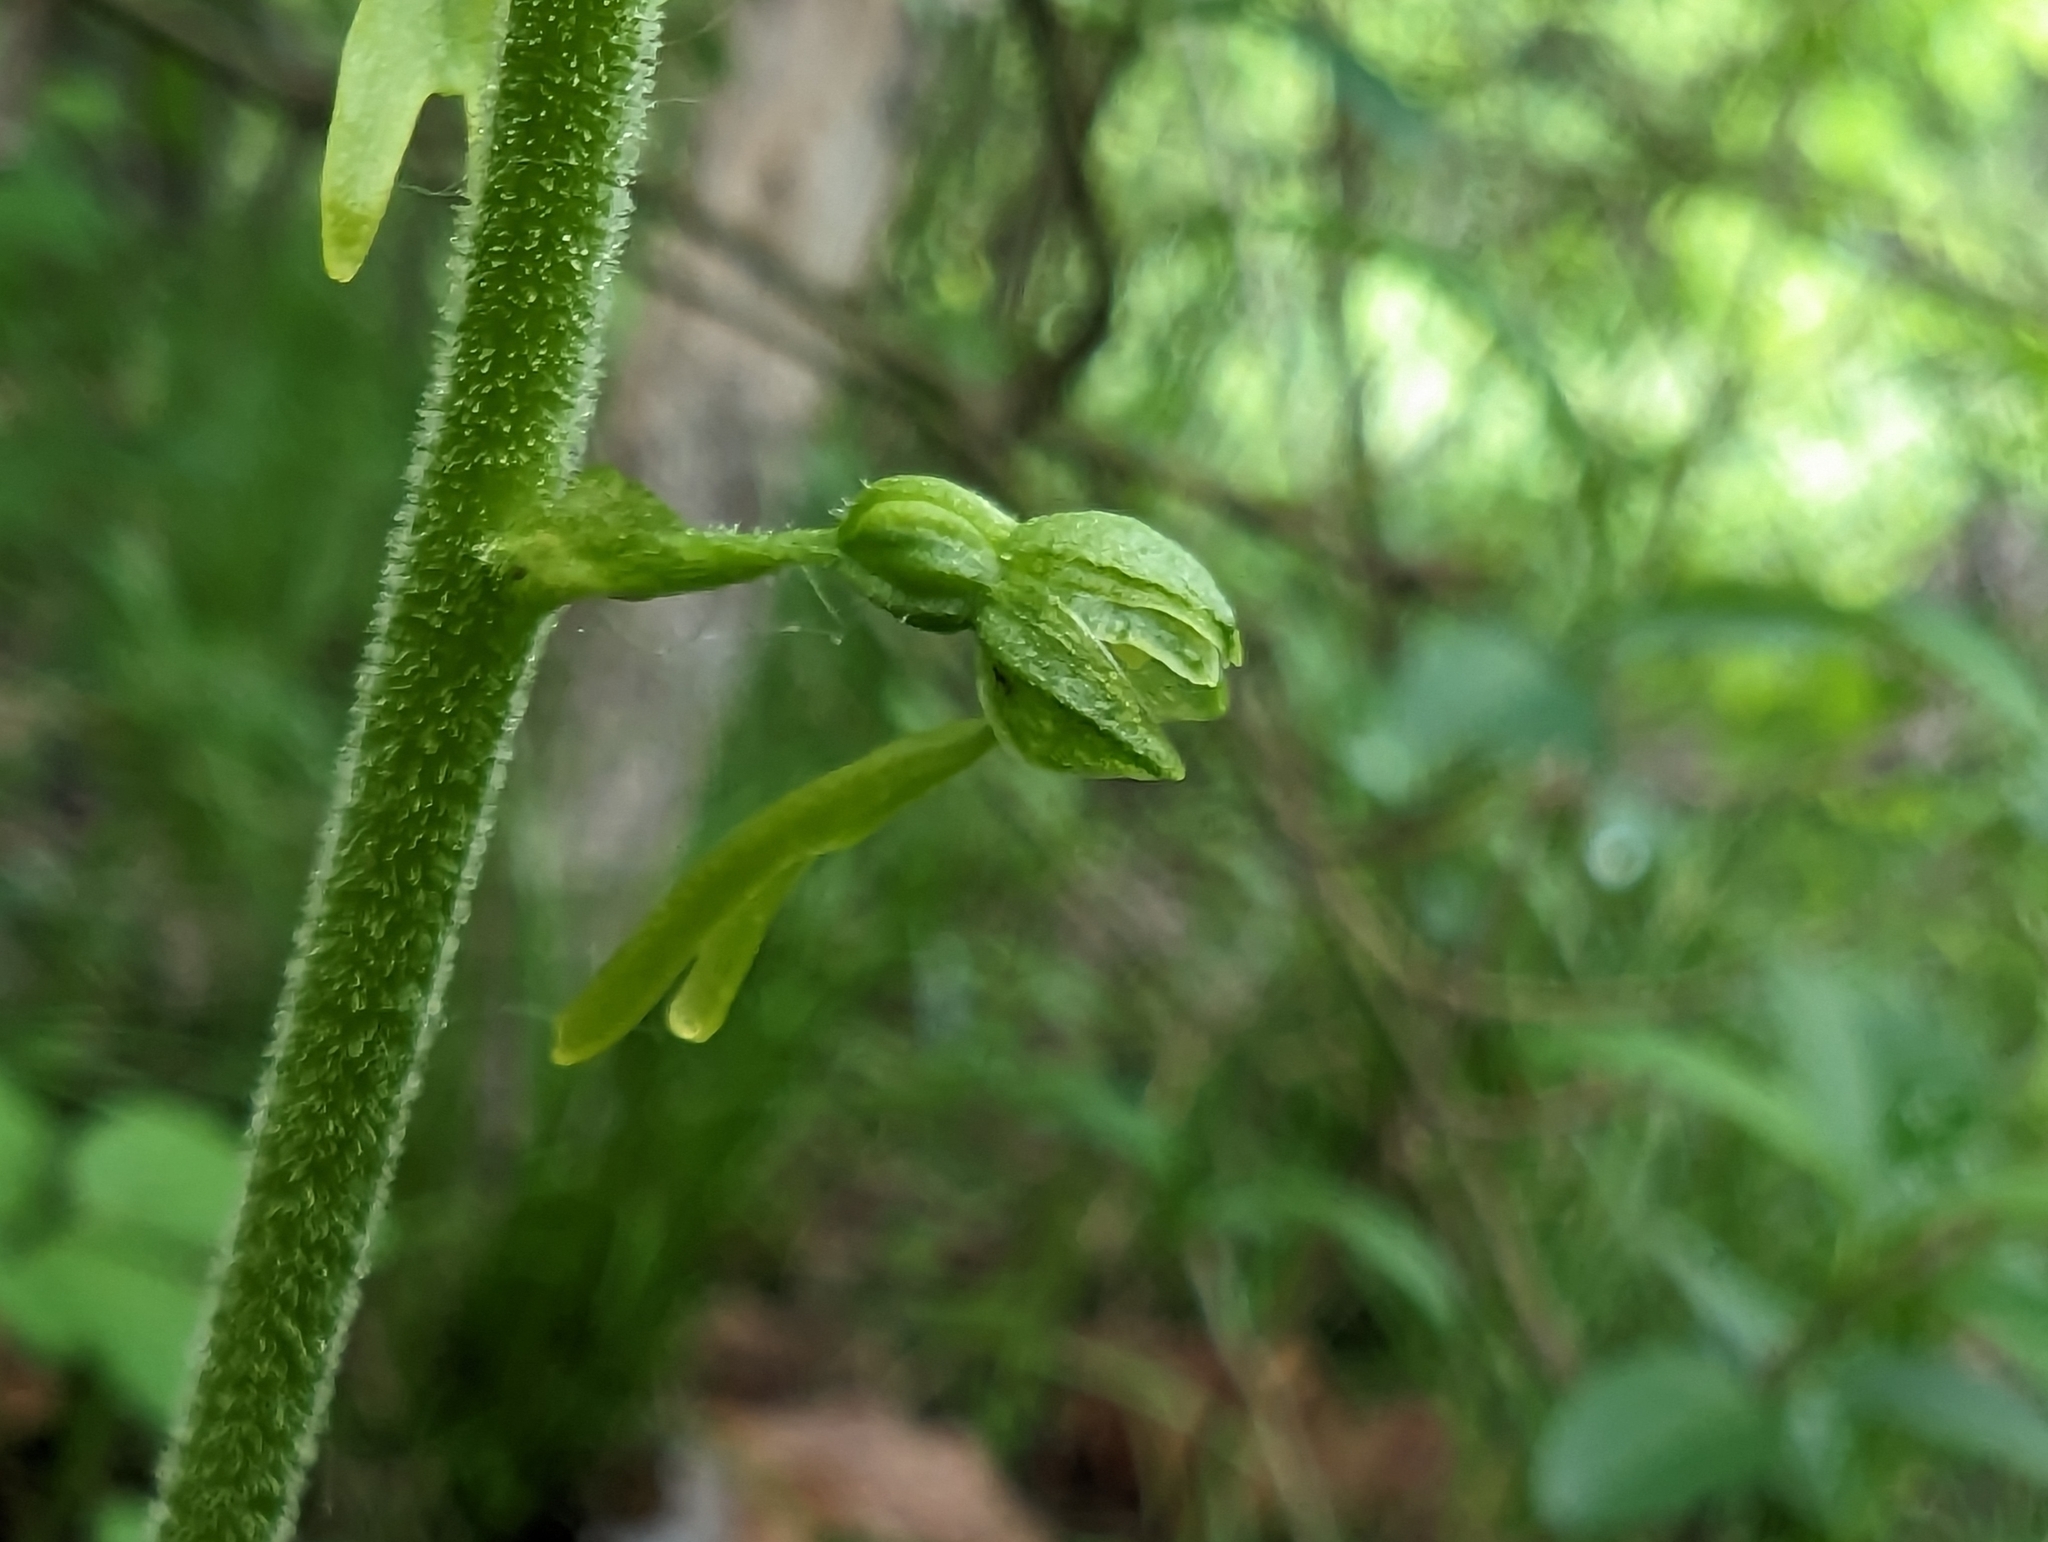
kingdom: Plantae
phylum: Tracheophyta
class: Liliopsida
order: Asparagales
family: Orchidaceae
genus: Neottia
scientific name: Neottia ovata
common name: Common twayblade
